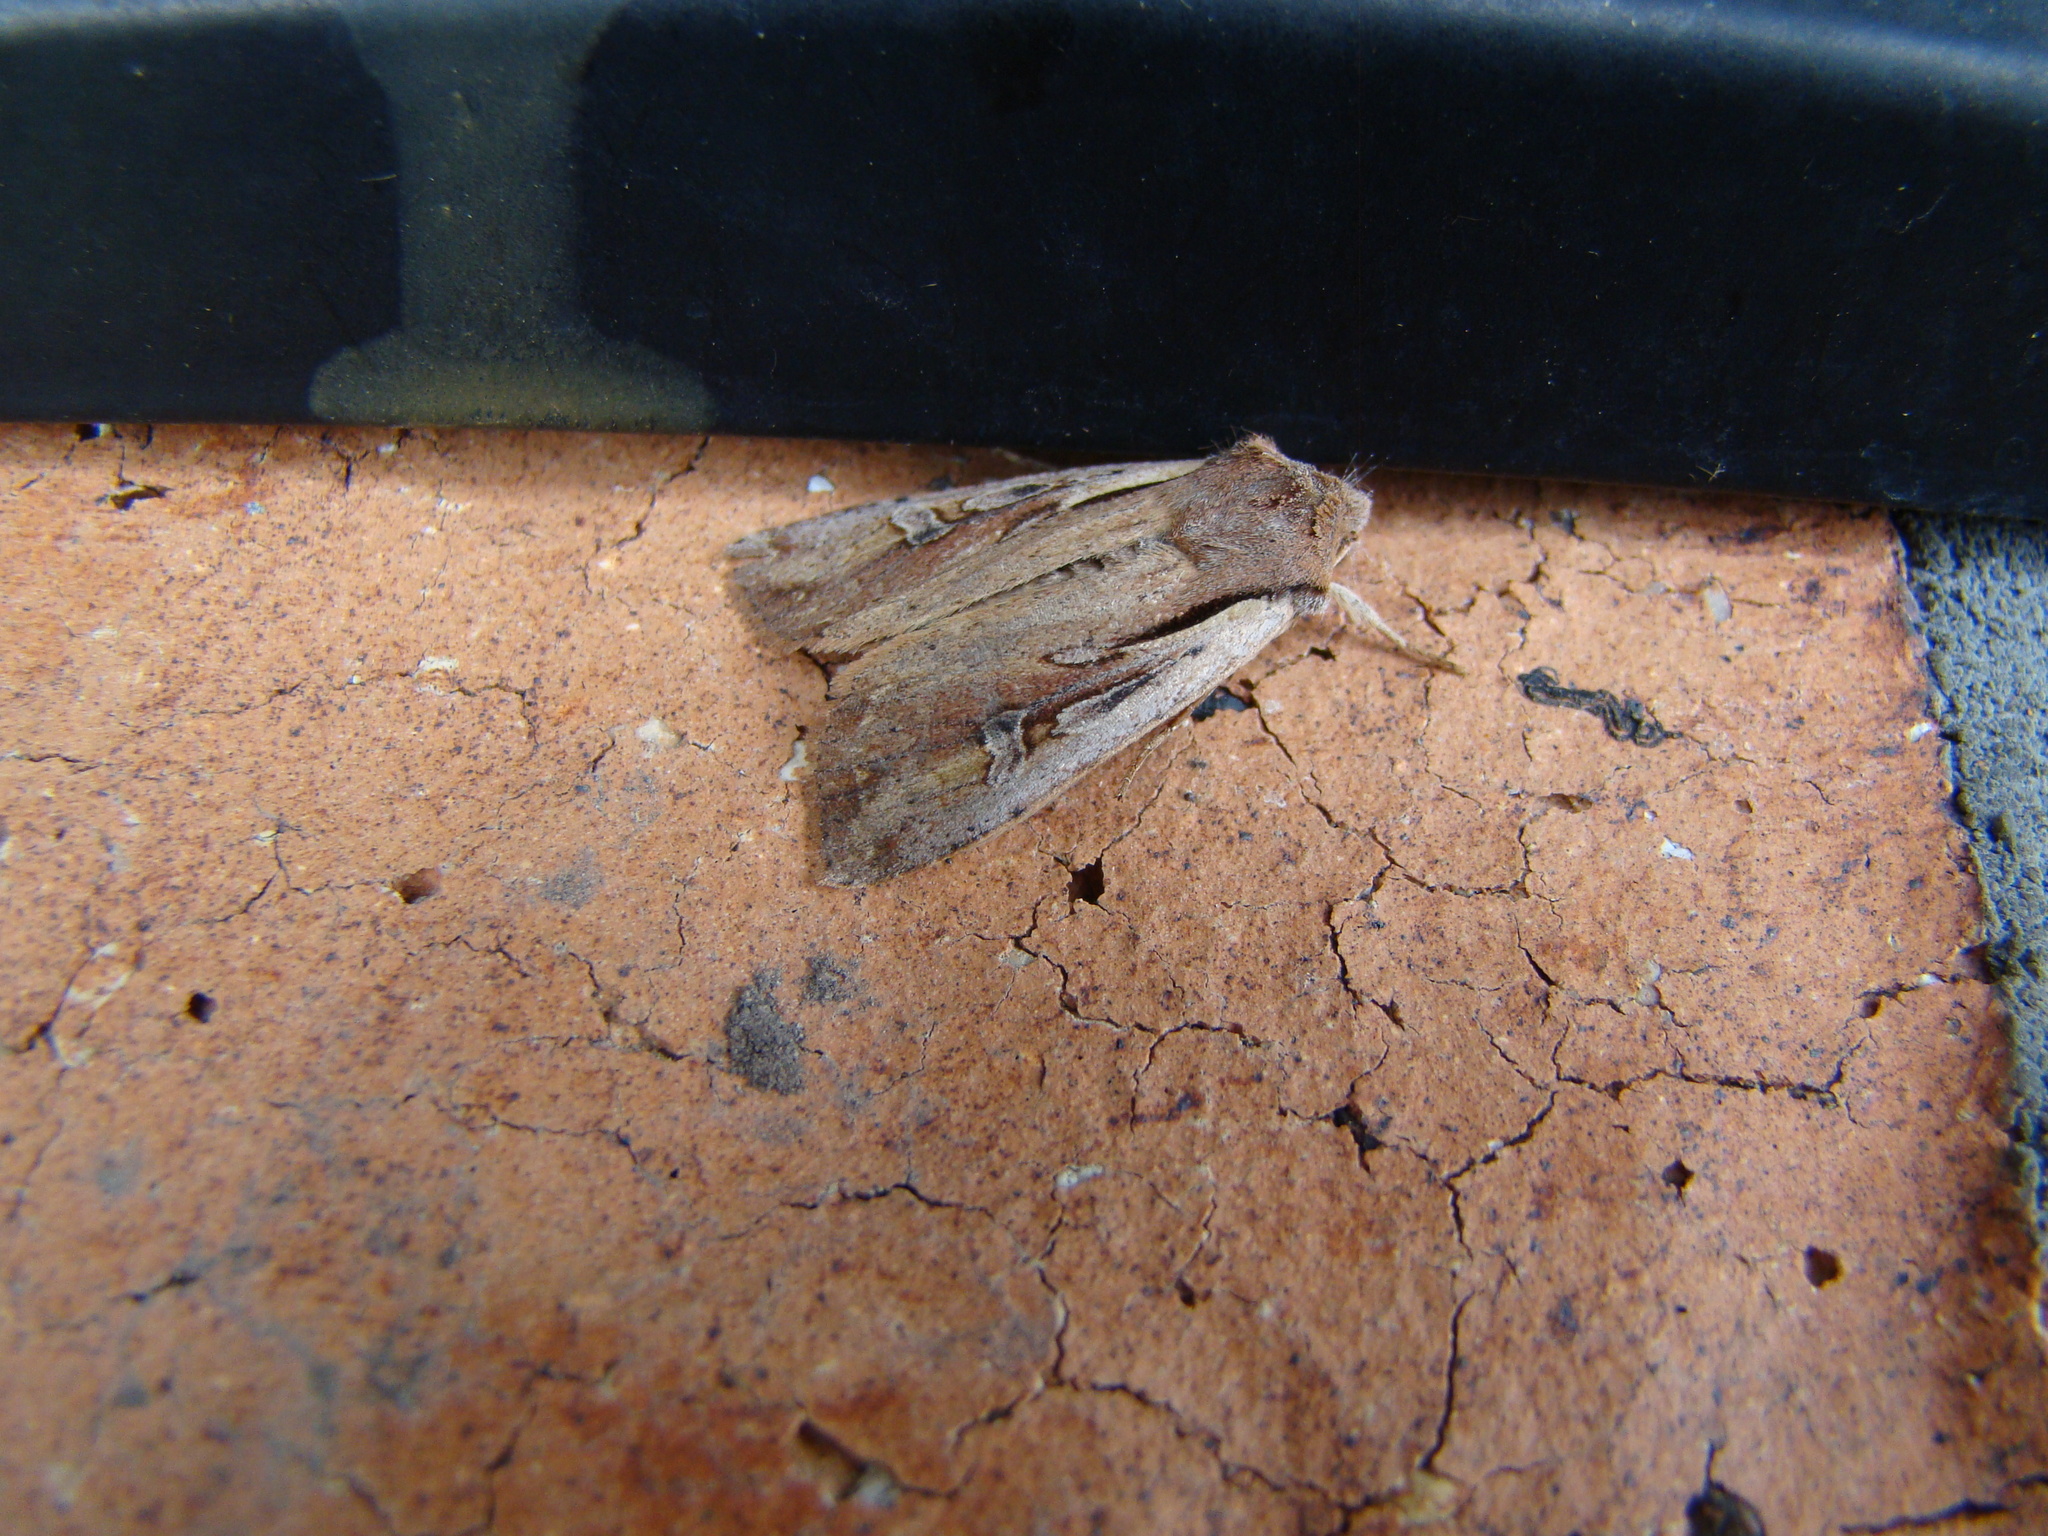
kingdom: Animalia
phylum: Arthropoda
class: Insecta
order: Lepidoptera
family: Noctuidae
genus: Ichneutica
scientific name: Ichneutica atristriga
